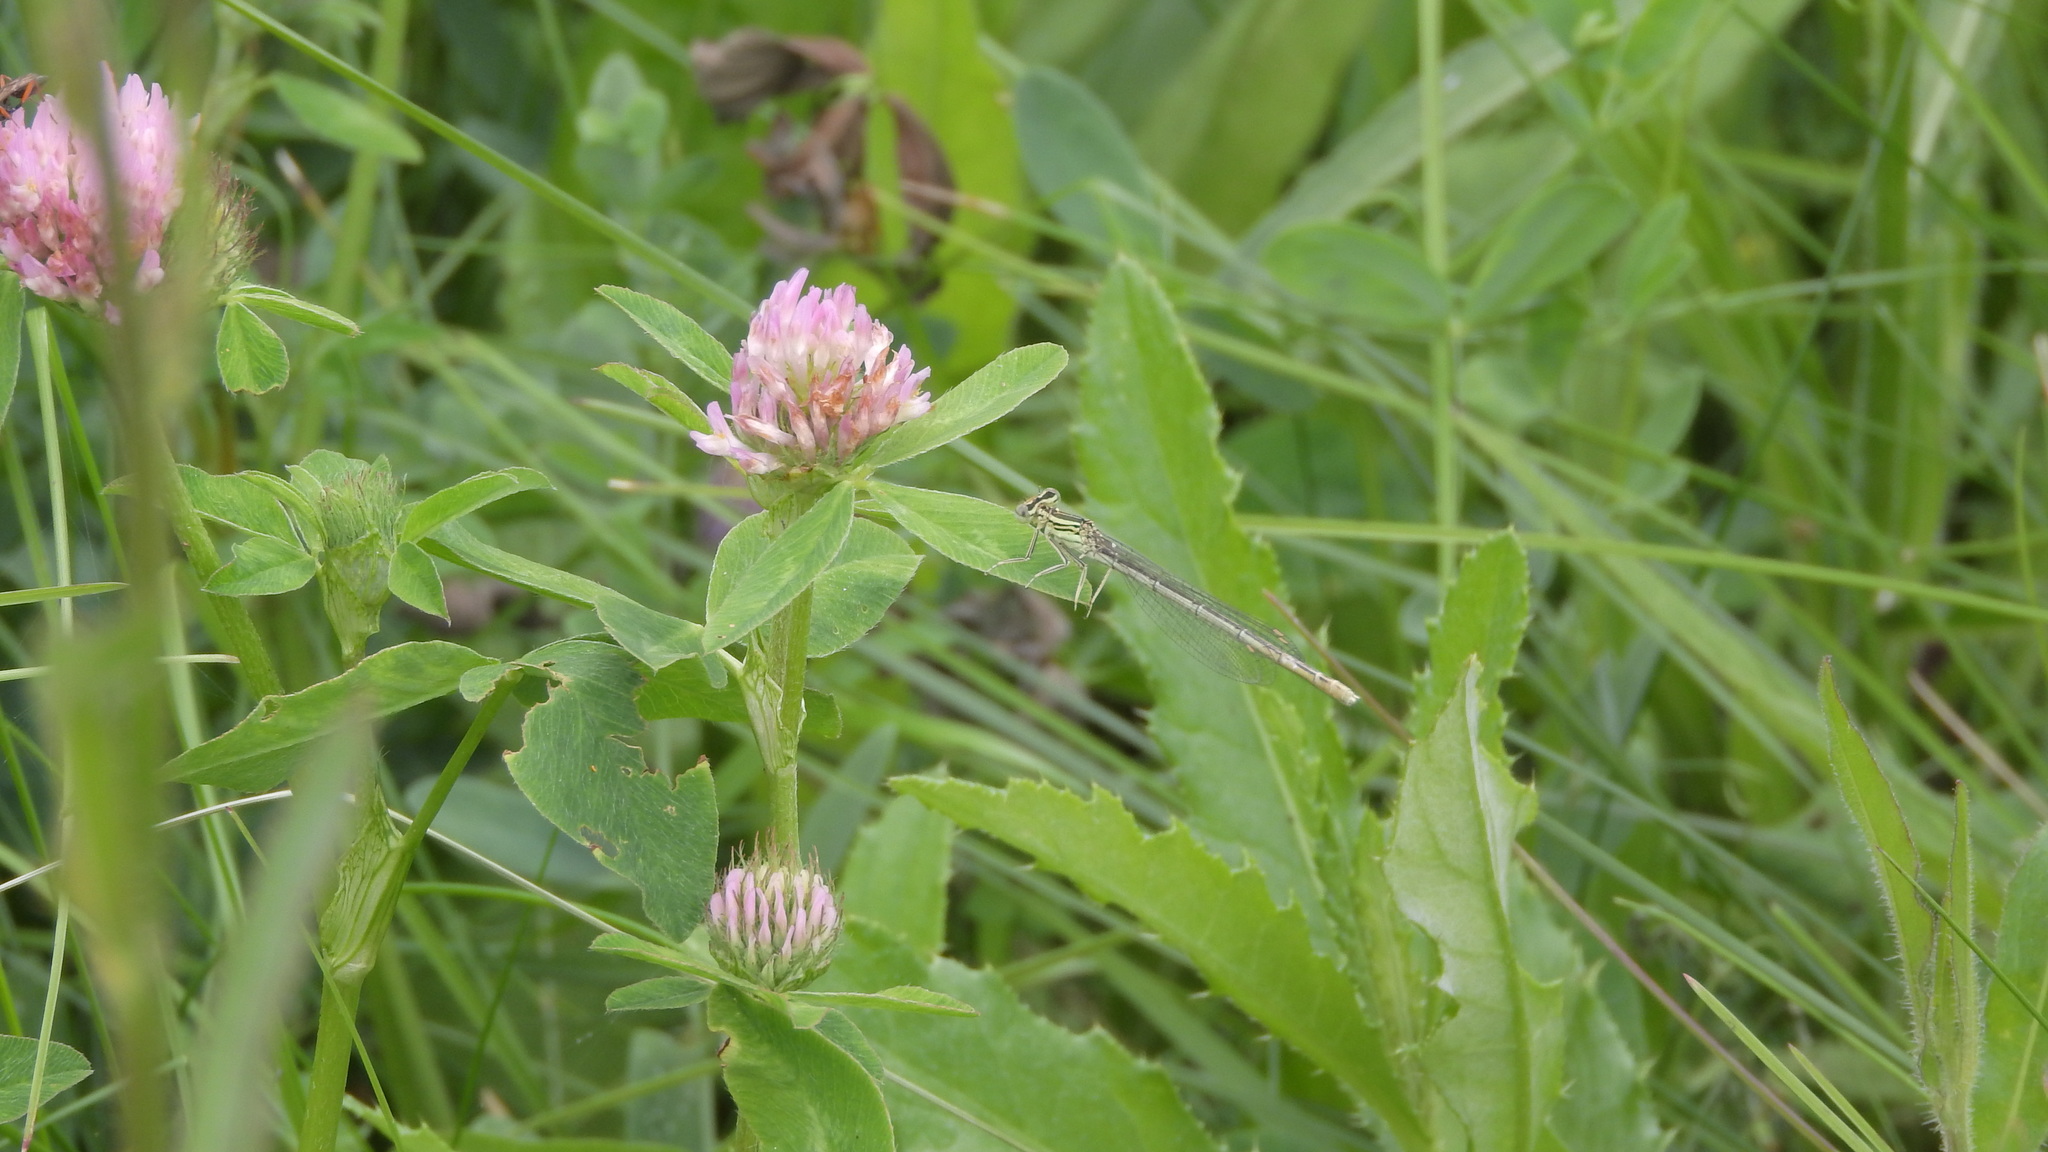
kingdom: Animalia
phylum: Arthropoda
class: Insecta
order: Odonata
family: Platycnemididae
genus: Platycnemis
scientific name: Platycnemis pennipes
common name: White-legged damselfly
